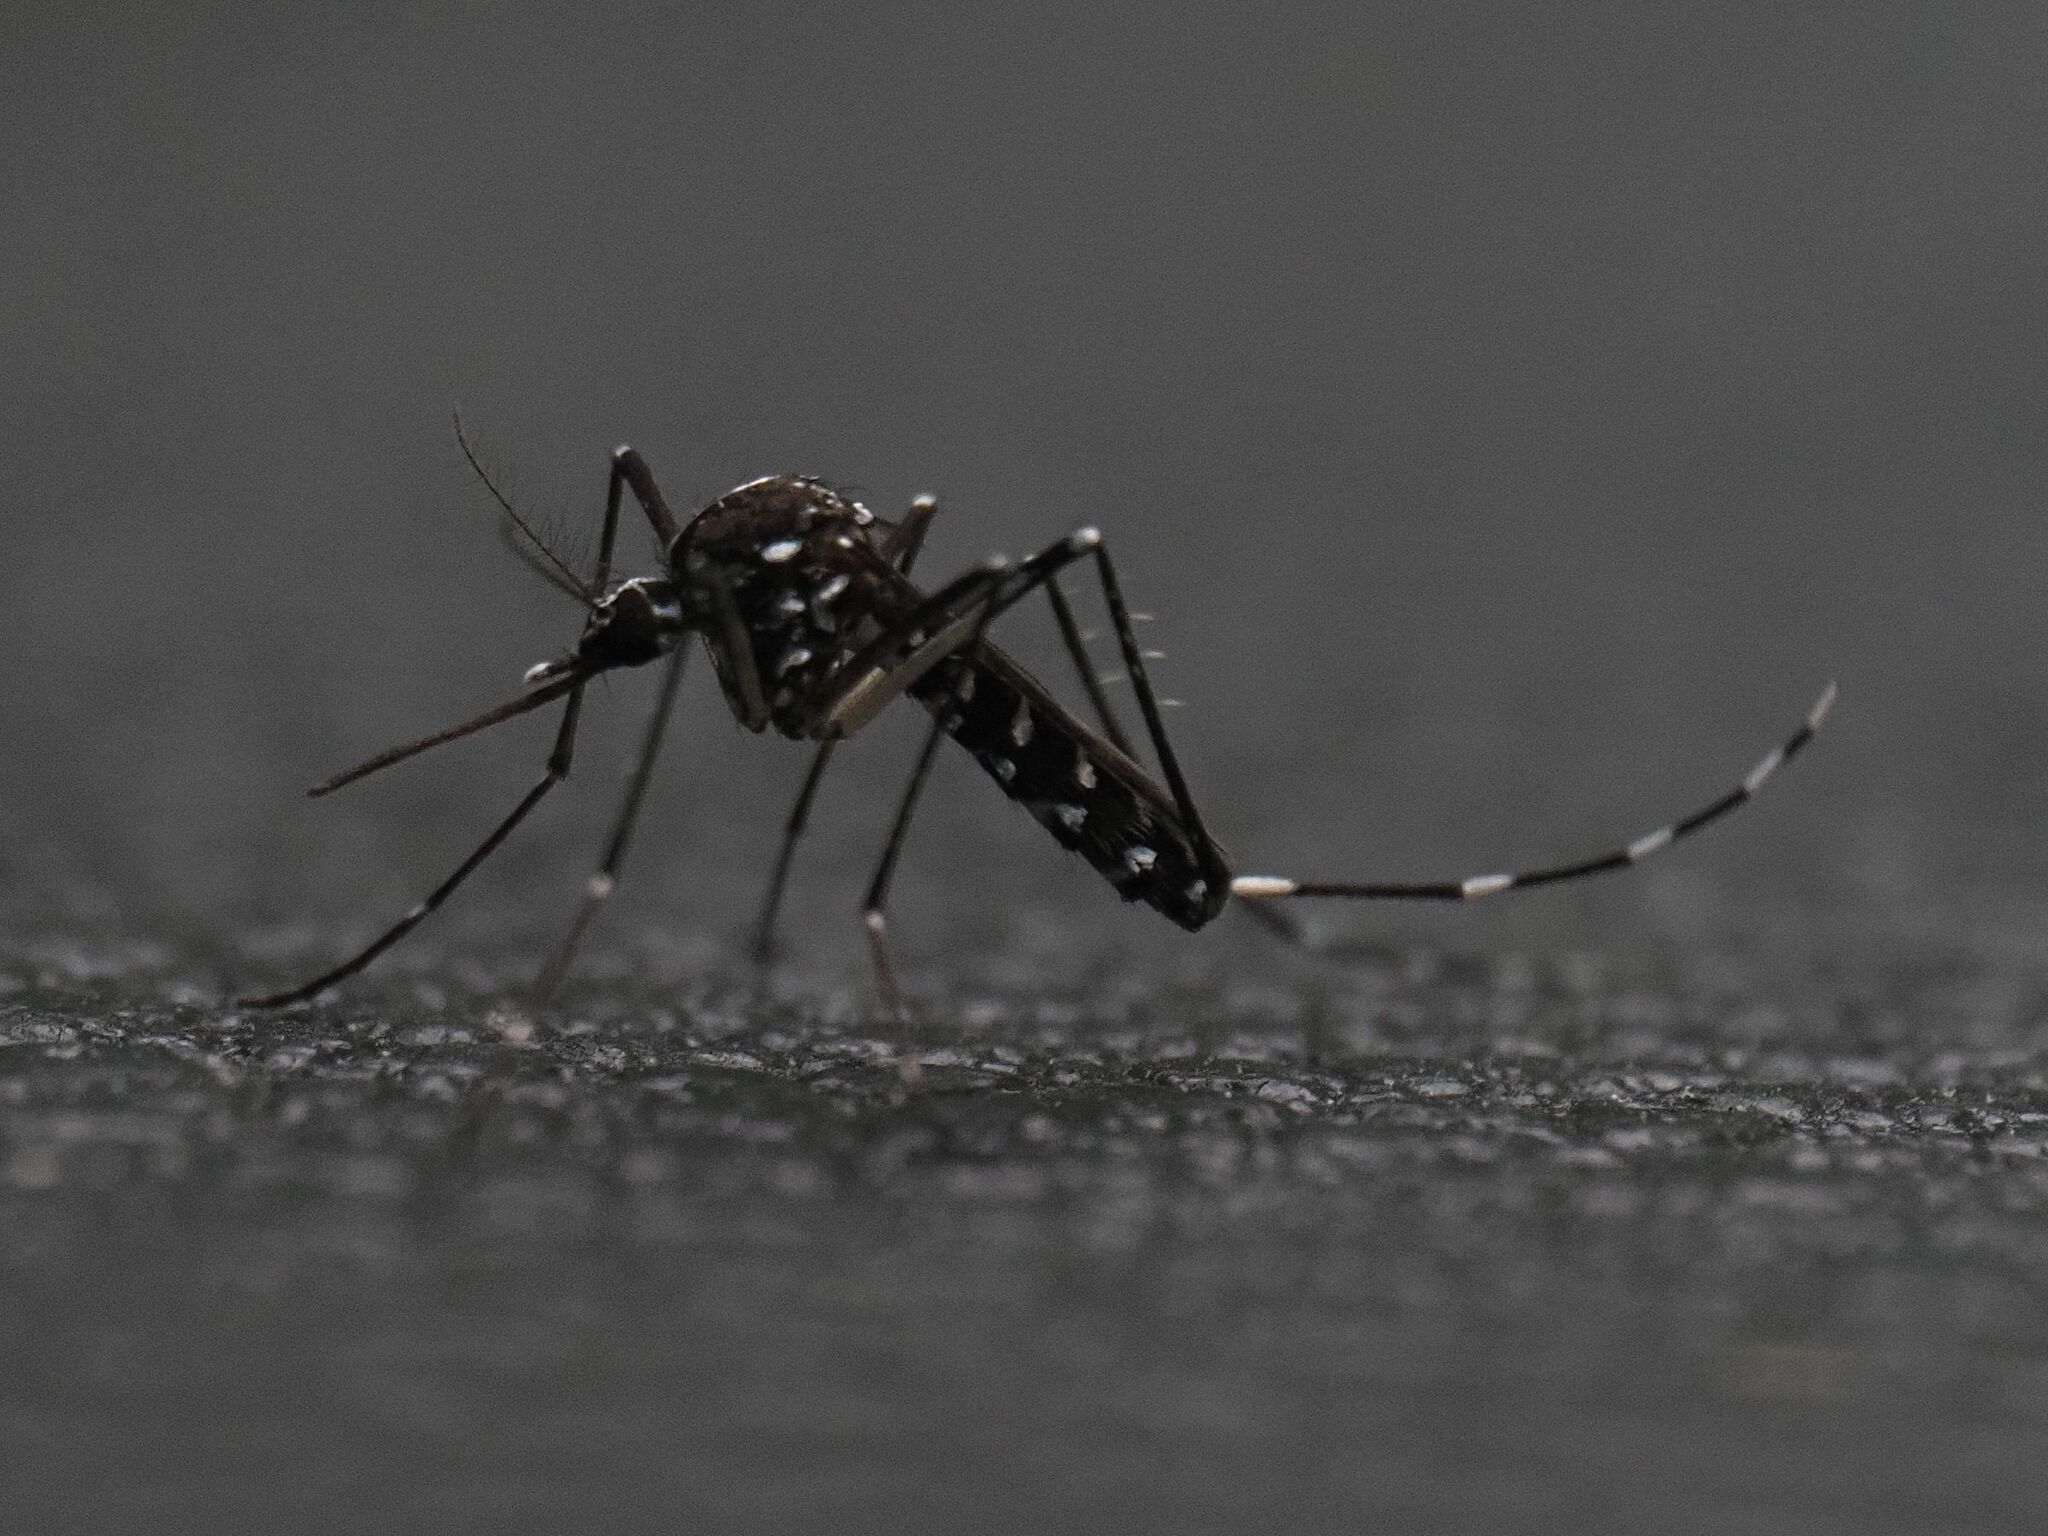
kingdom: Animalia
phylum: Arthropoda
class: Insecta
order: Diptera
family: Culicidae
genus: Aedes
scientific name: Aedes albopictus
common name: Tiger mosquito
